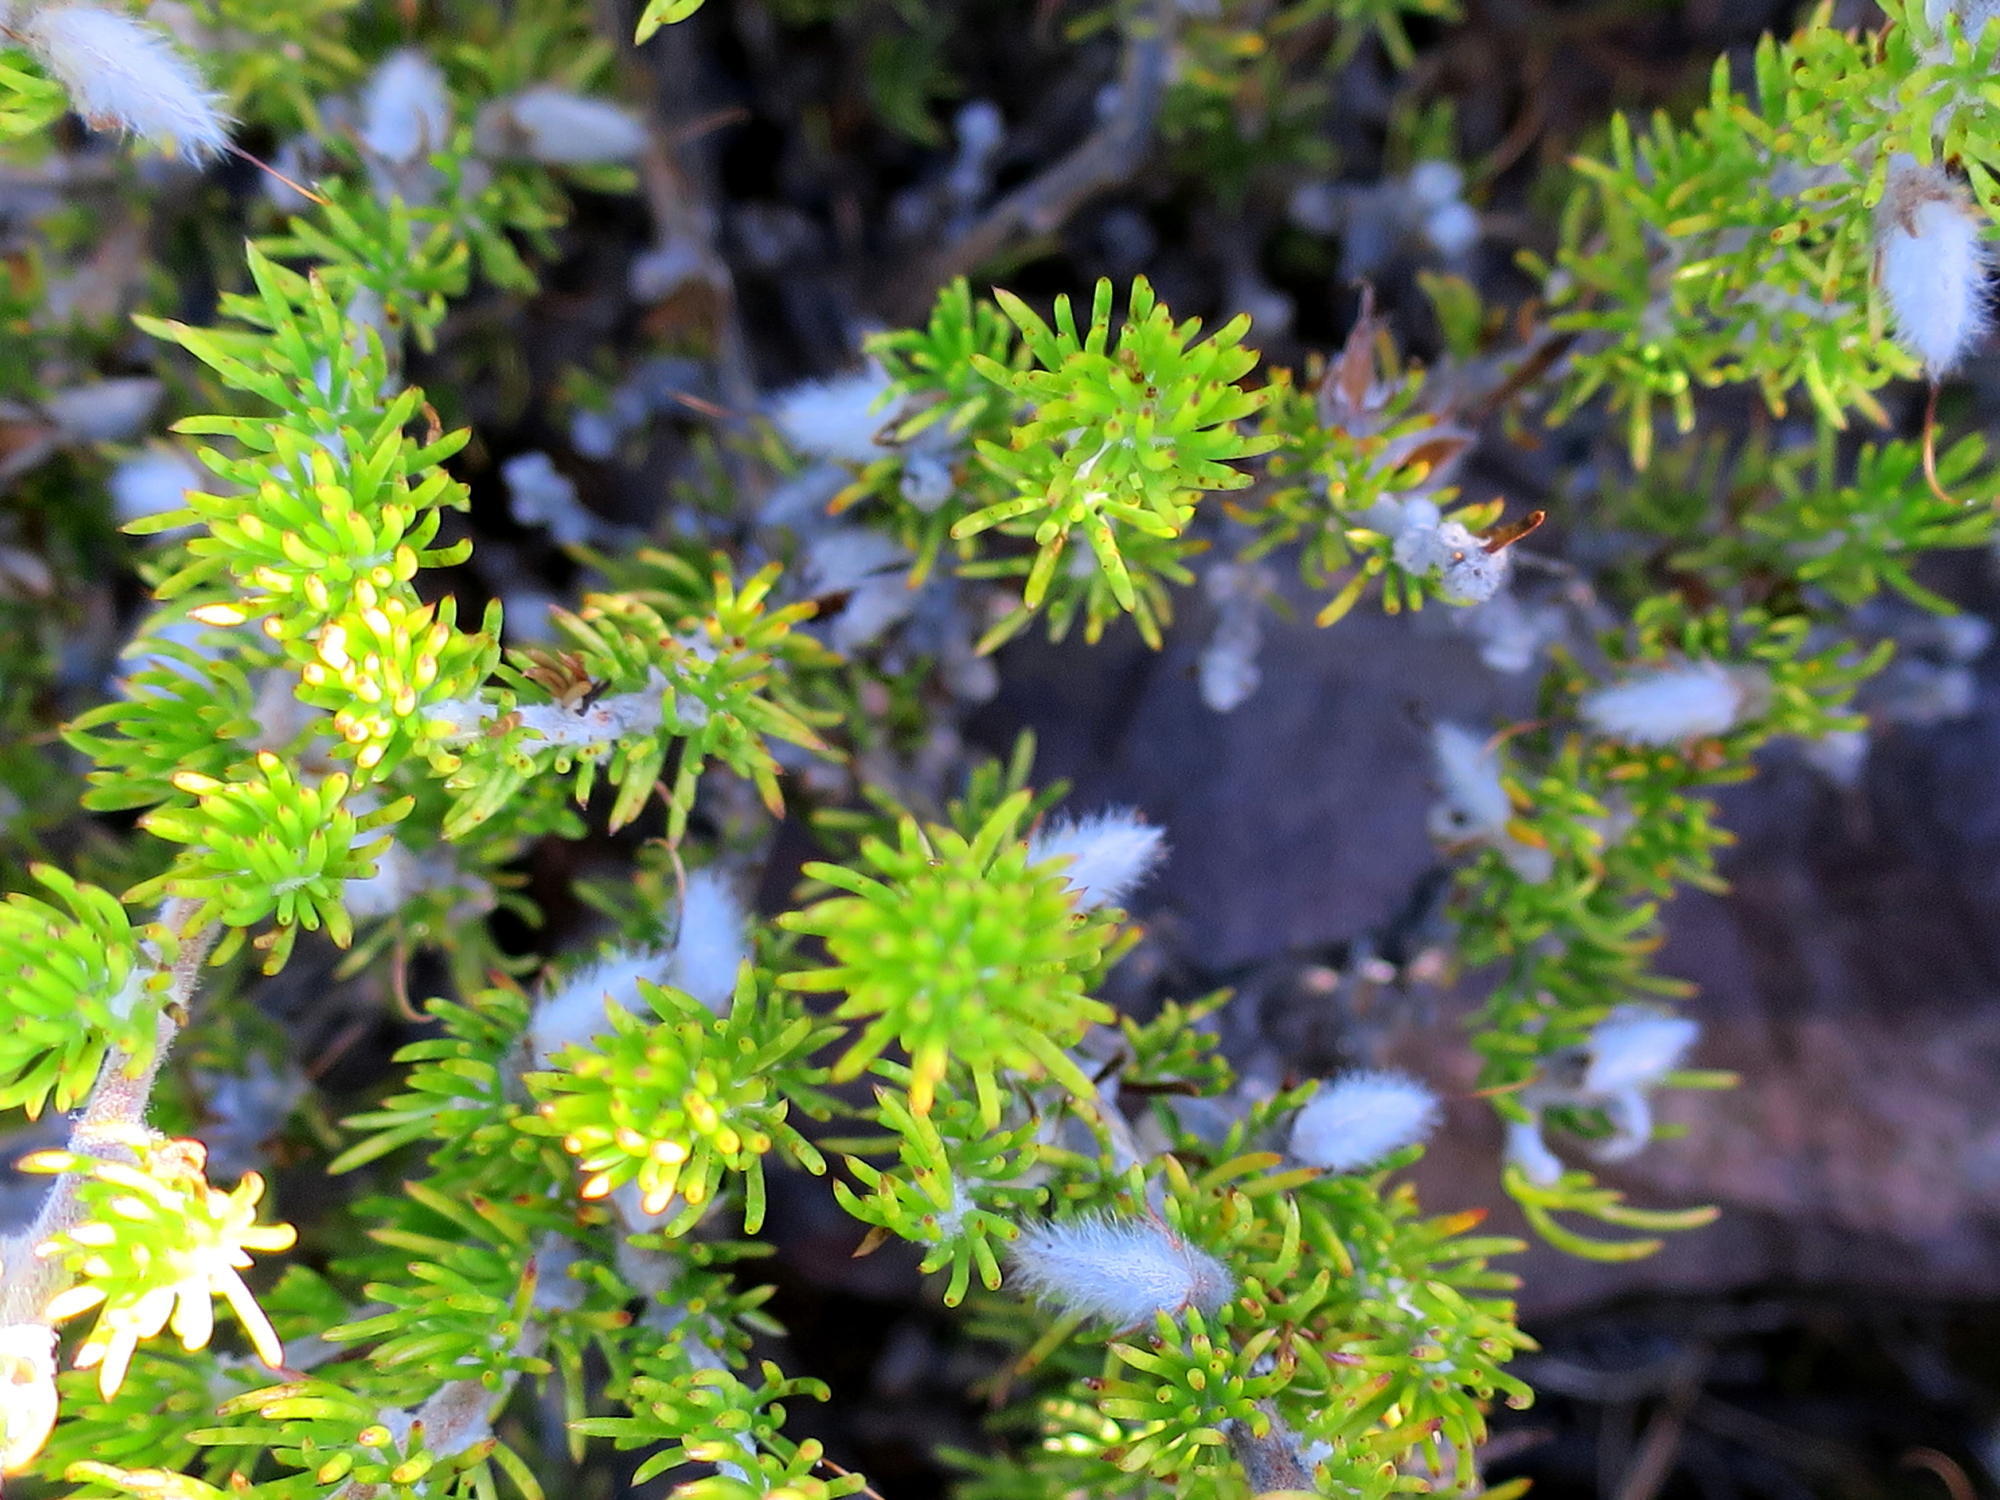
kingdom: Plantae
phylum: Tracheophyta
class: Magnoliopsida
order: Fabales
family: Fabaceae
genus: Aspalathus
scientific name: Aspalathus congesta
